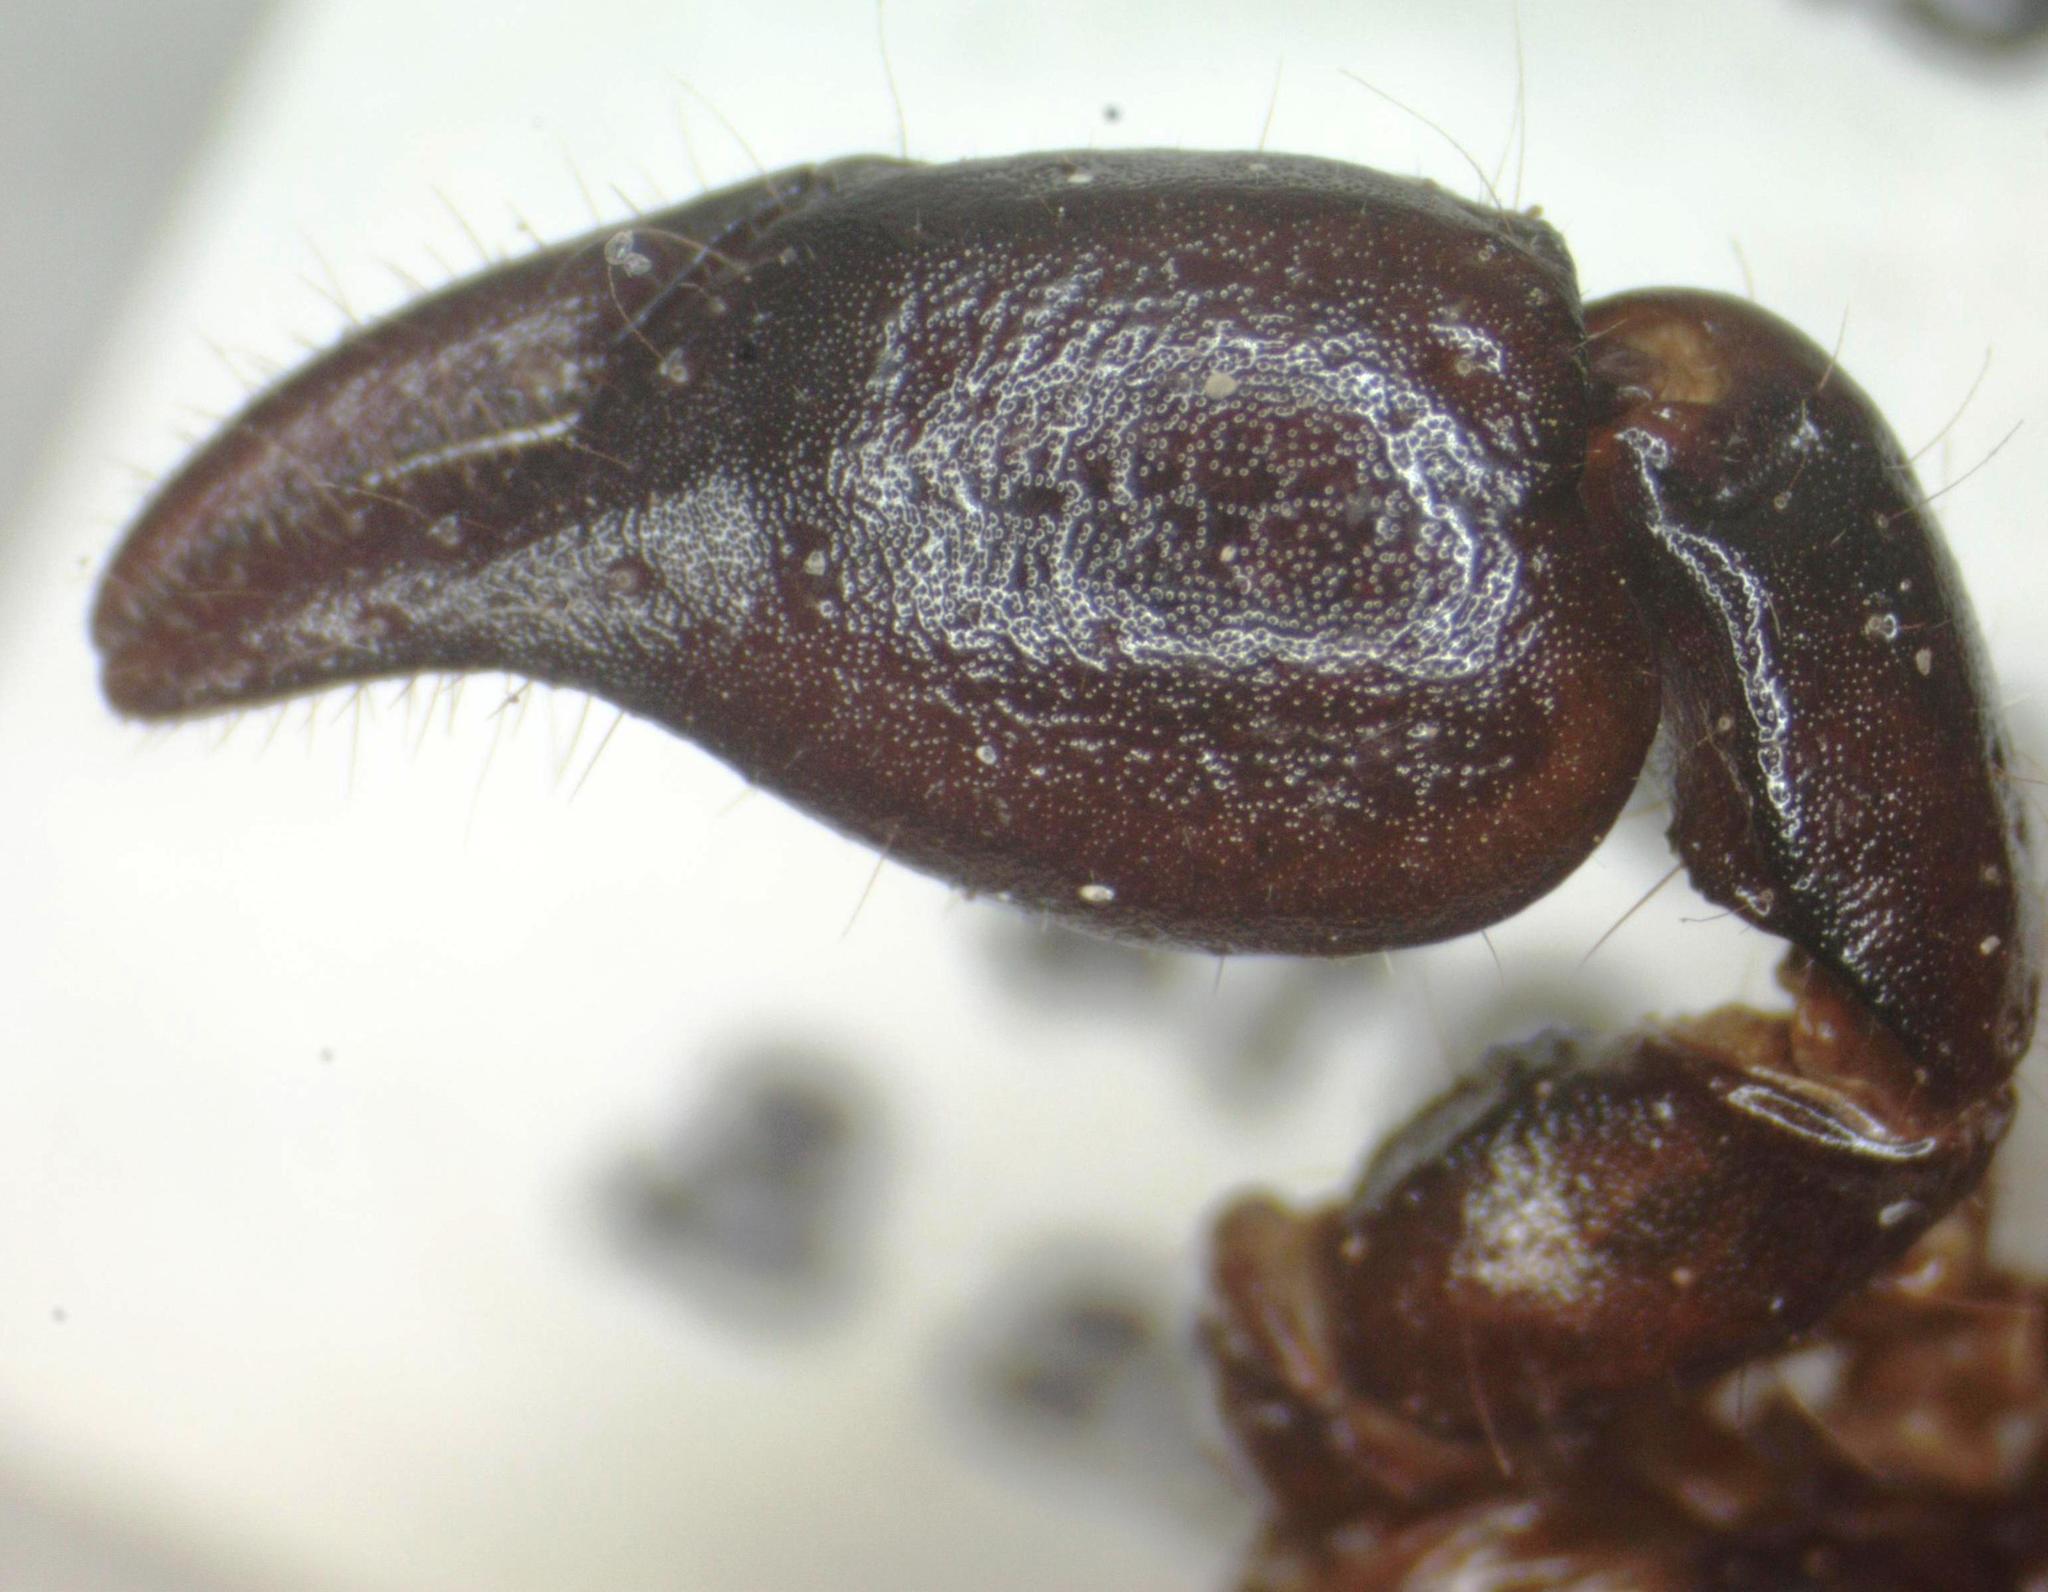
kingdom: Animalia
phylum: Arthropoda
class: Arachnida
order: Scorpiones
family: Diplocentridae
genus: Didymocentrus
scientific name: Didymocentrus krausi
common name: Scorpions
